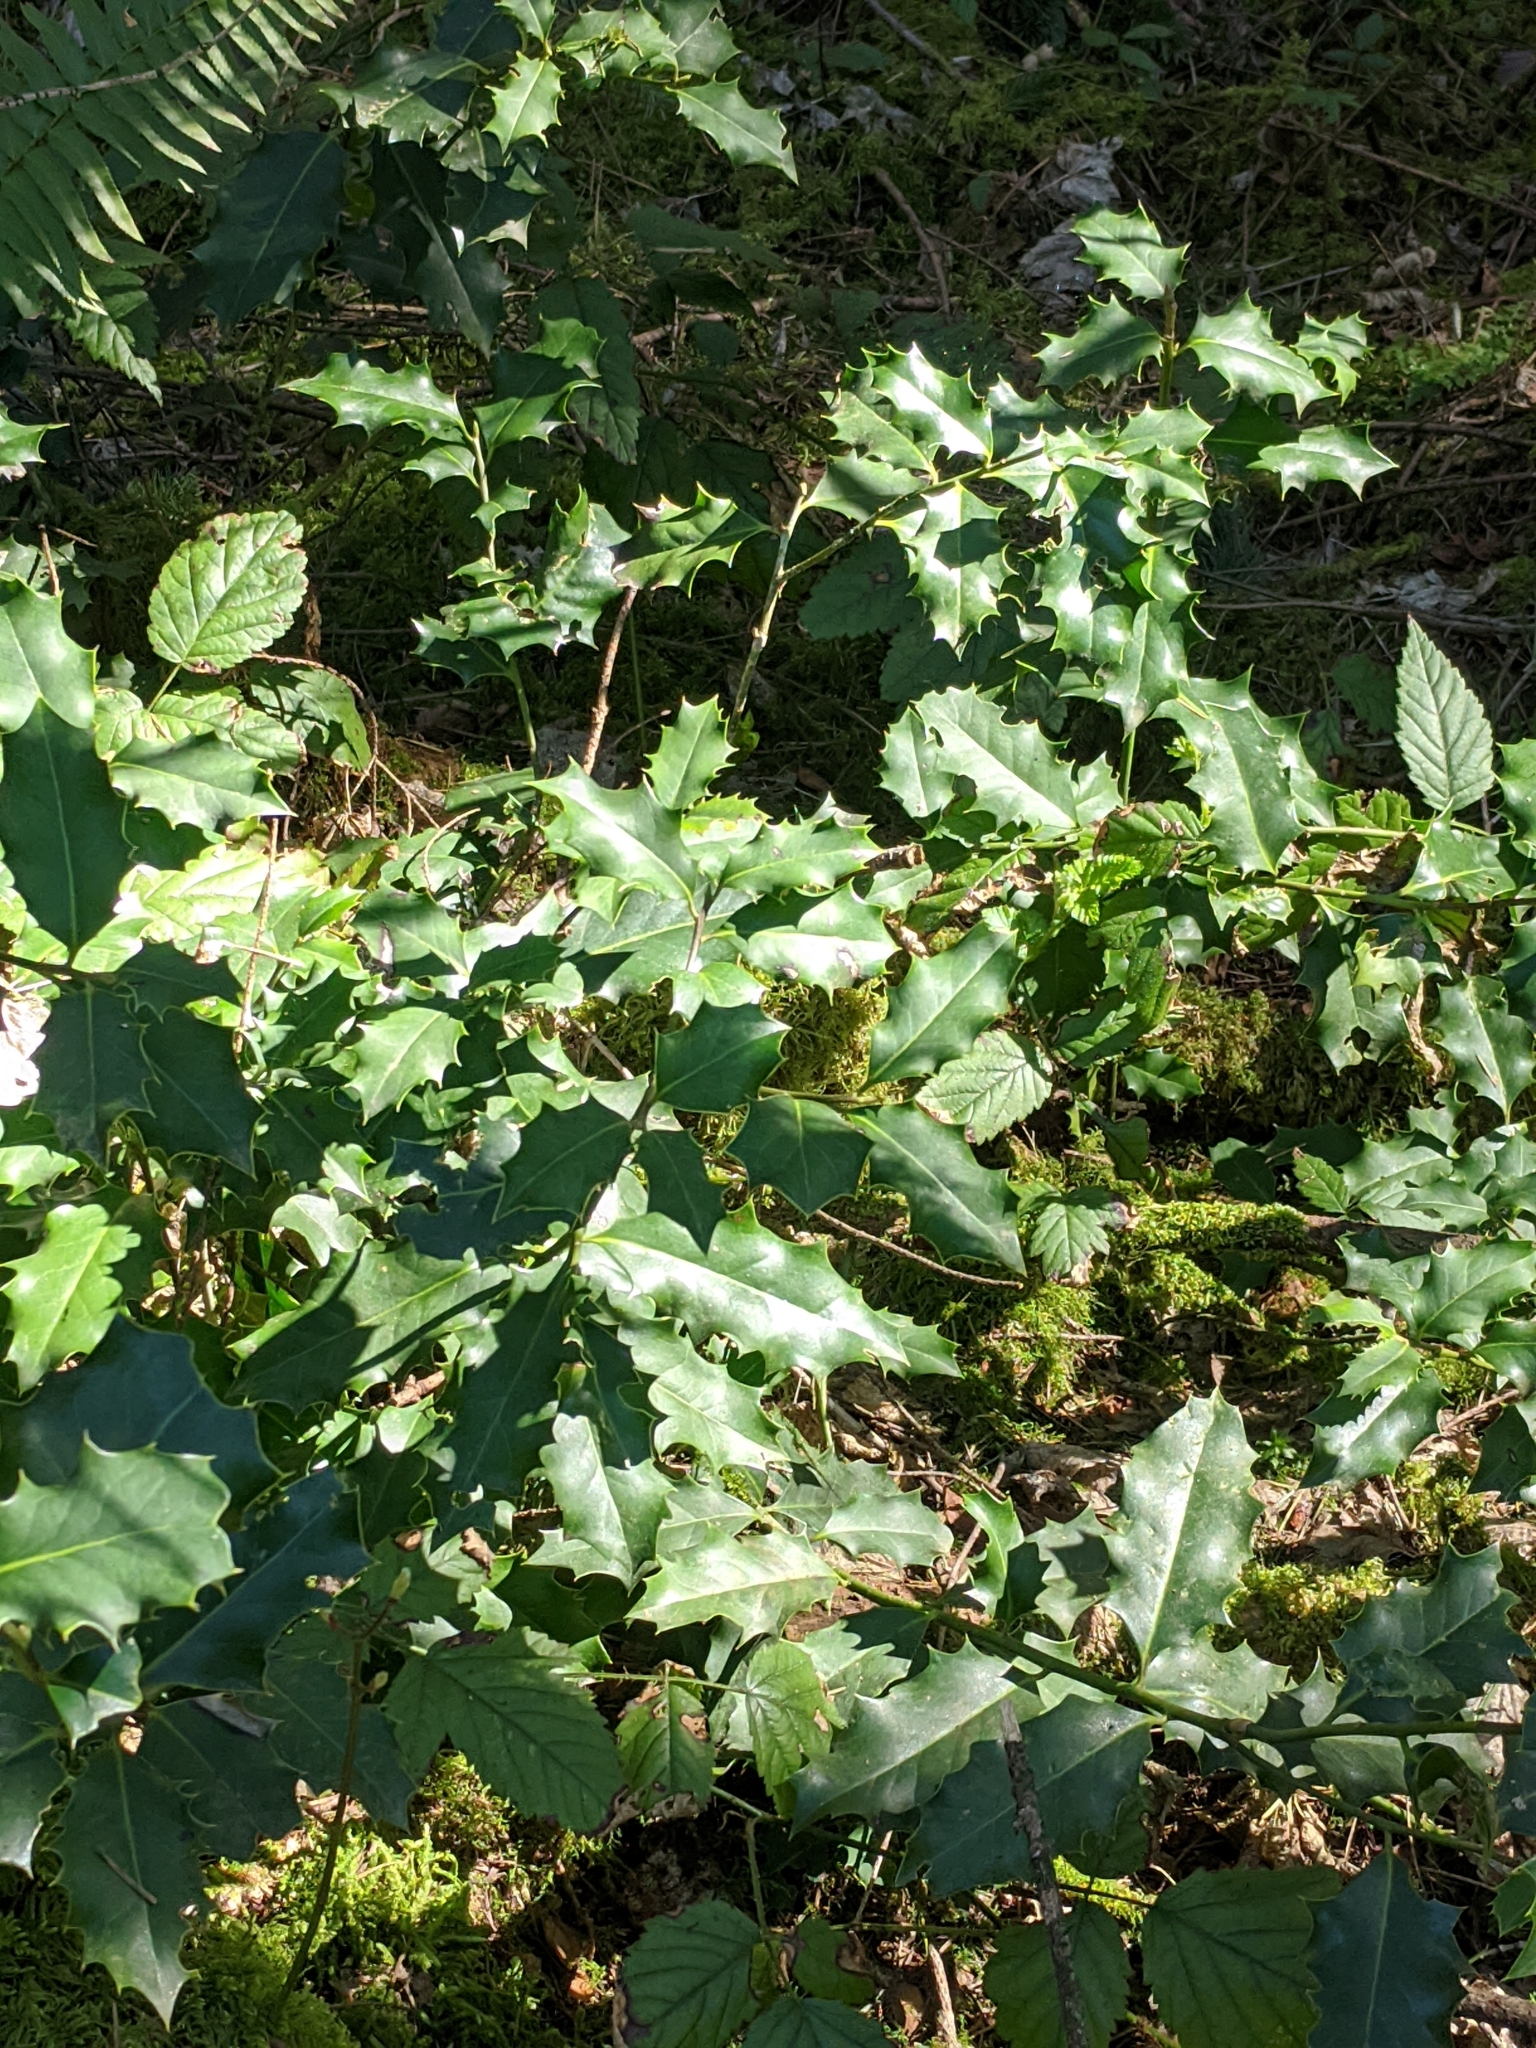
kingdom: Plantae
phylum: Tracheophyta
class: Magnoliopsida
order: Aquifoliales
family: Aquifoliaceae
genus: Ilex
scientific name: Ilex aquifolium
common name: English holly
